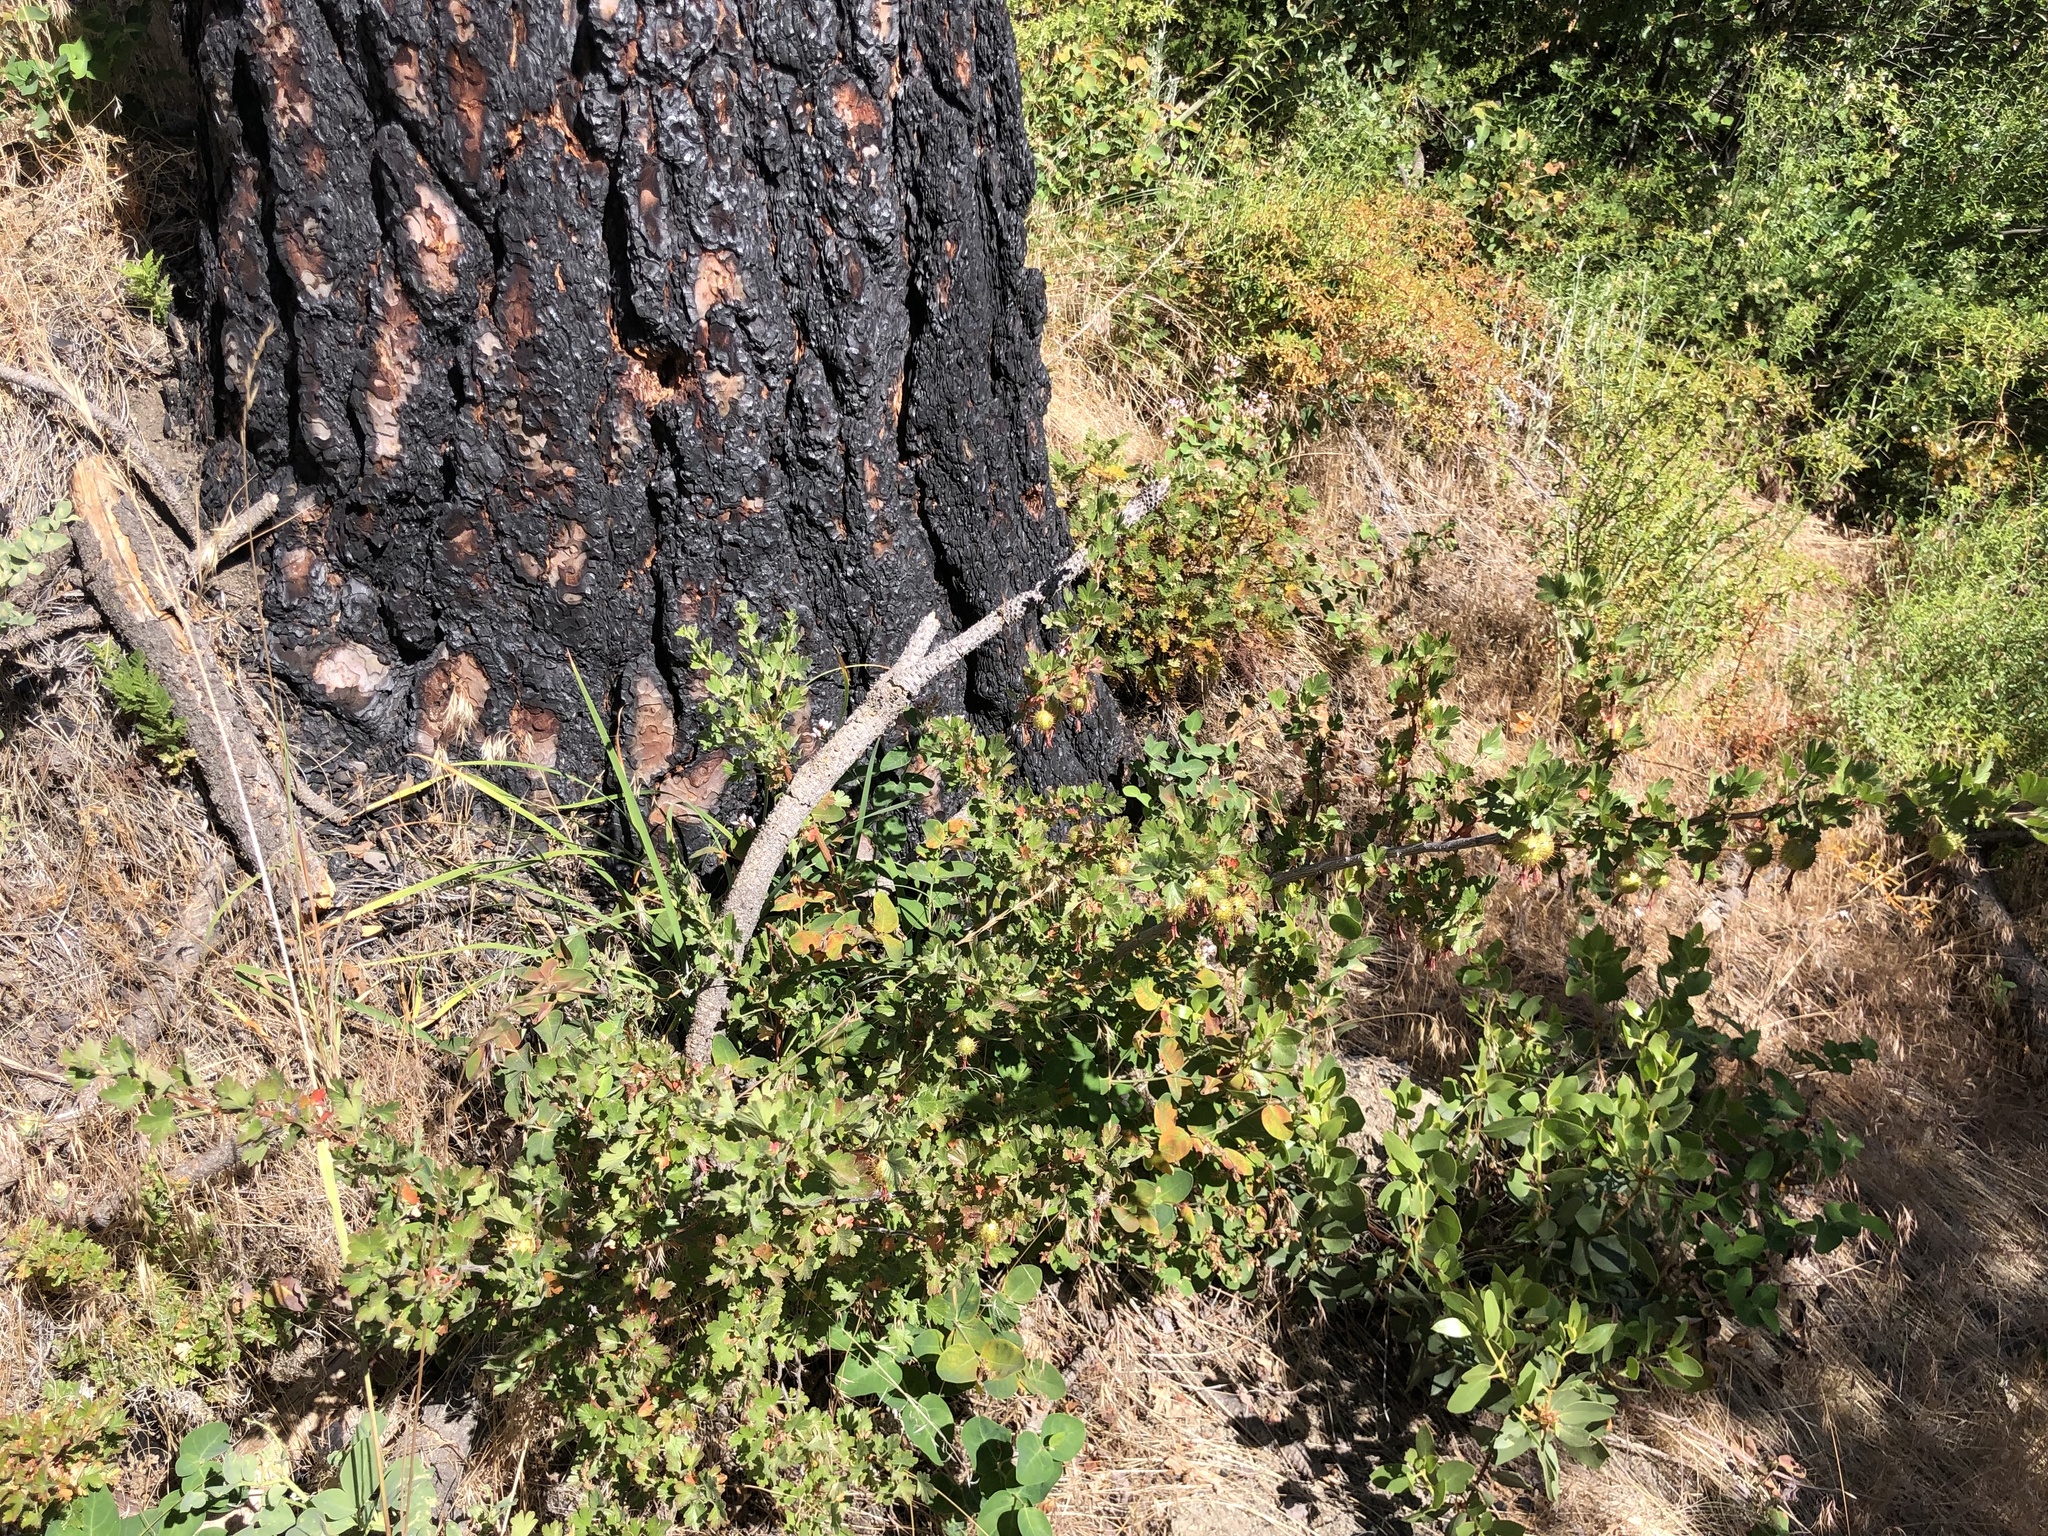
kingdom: Plantae
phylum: Tracheophyta
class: Magnoliopsida
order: Saxifragales
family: Grossulariaceae
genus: Ribes
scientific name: Ribes roezlii
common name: Sierra gooseberry
